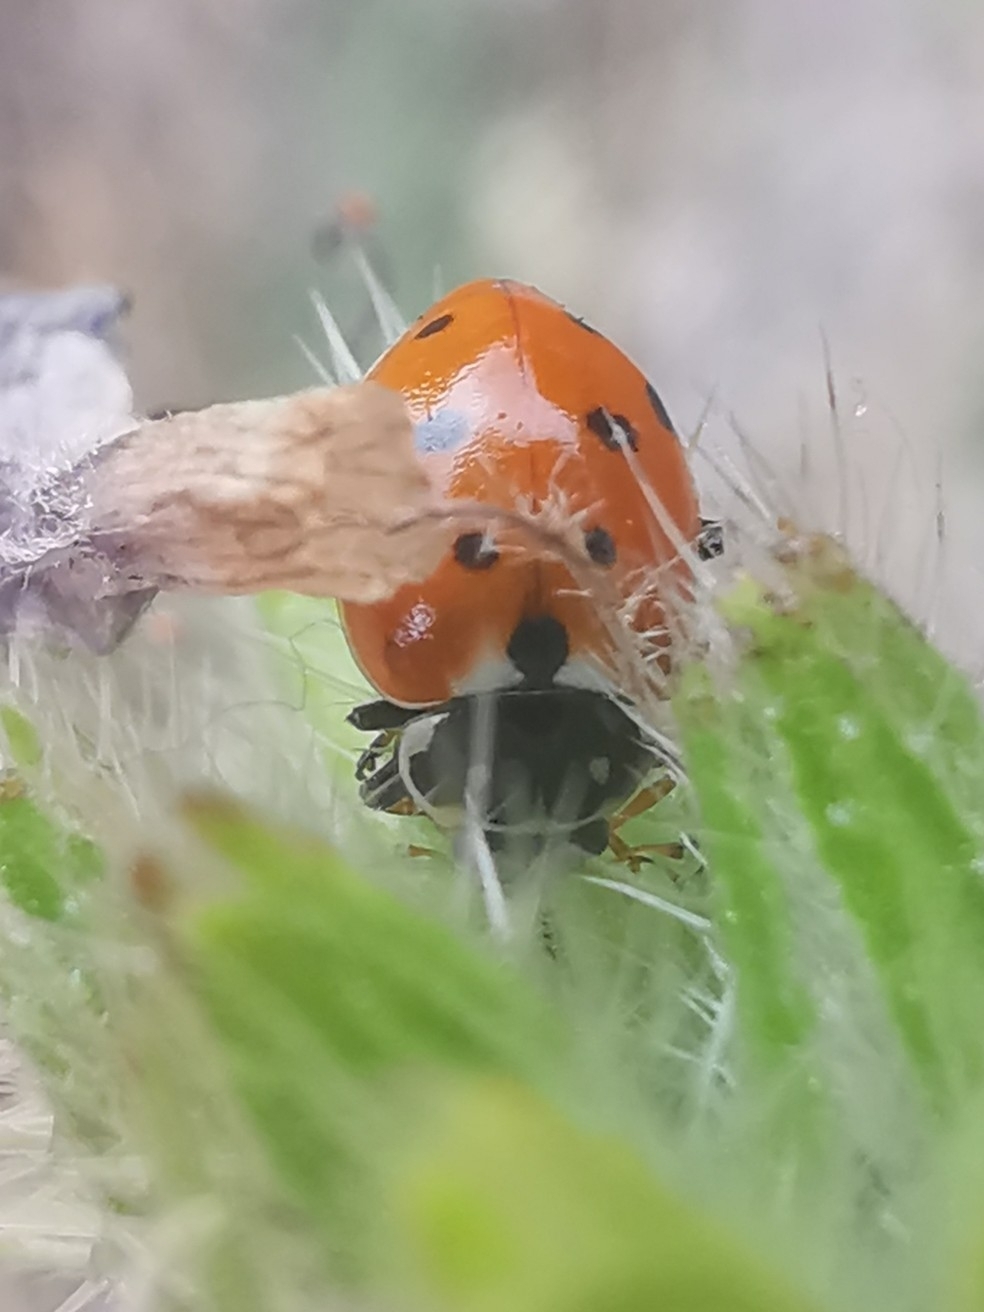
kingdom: Animalia
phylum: Arthropoda
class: Insecta
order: Coleoptera
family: Coccinellidae
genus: Hippodamia
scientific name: Hippodamia variegata
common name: Ladybird beetle
